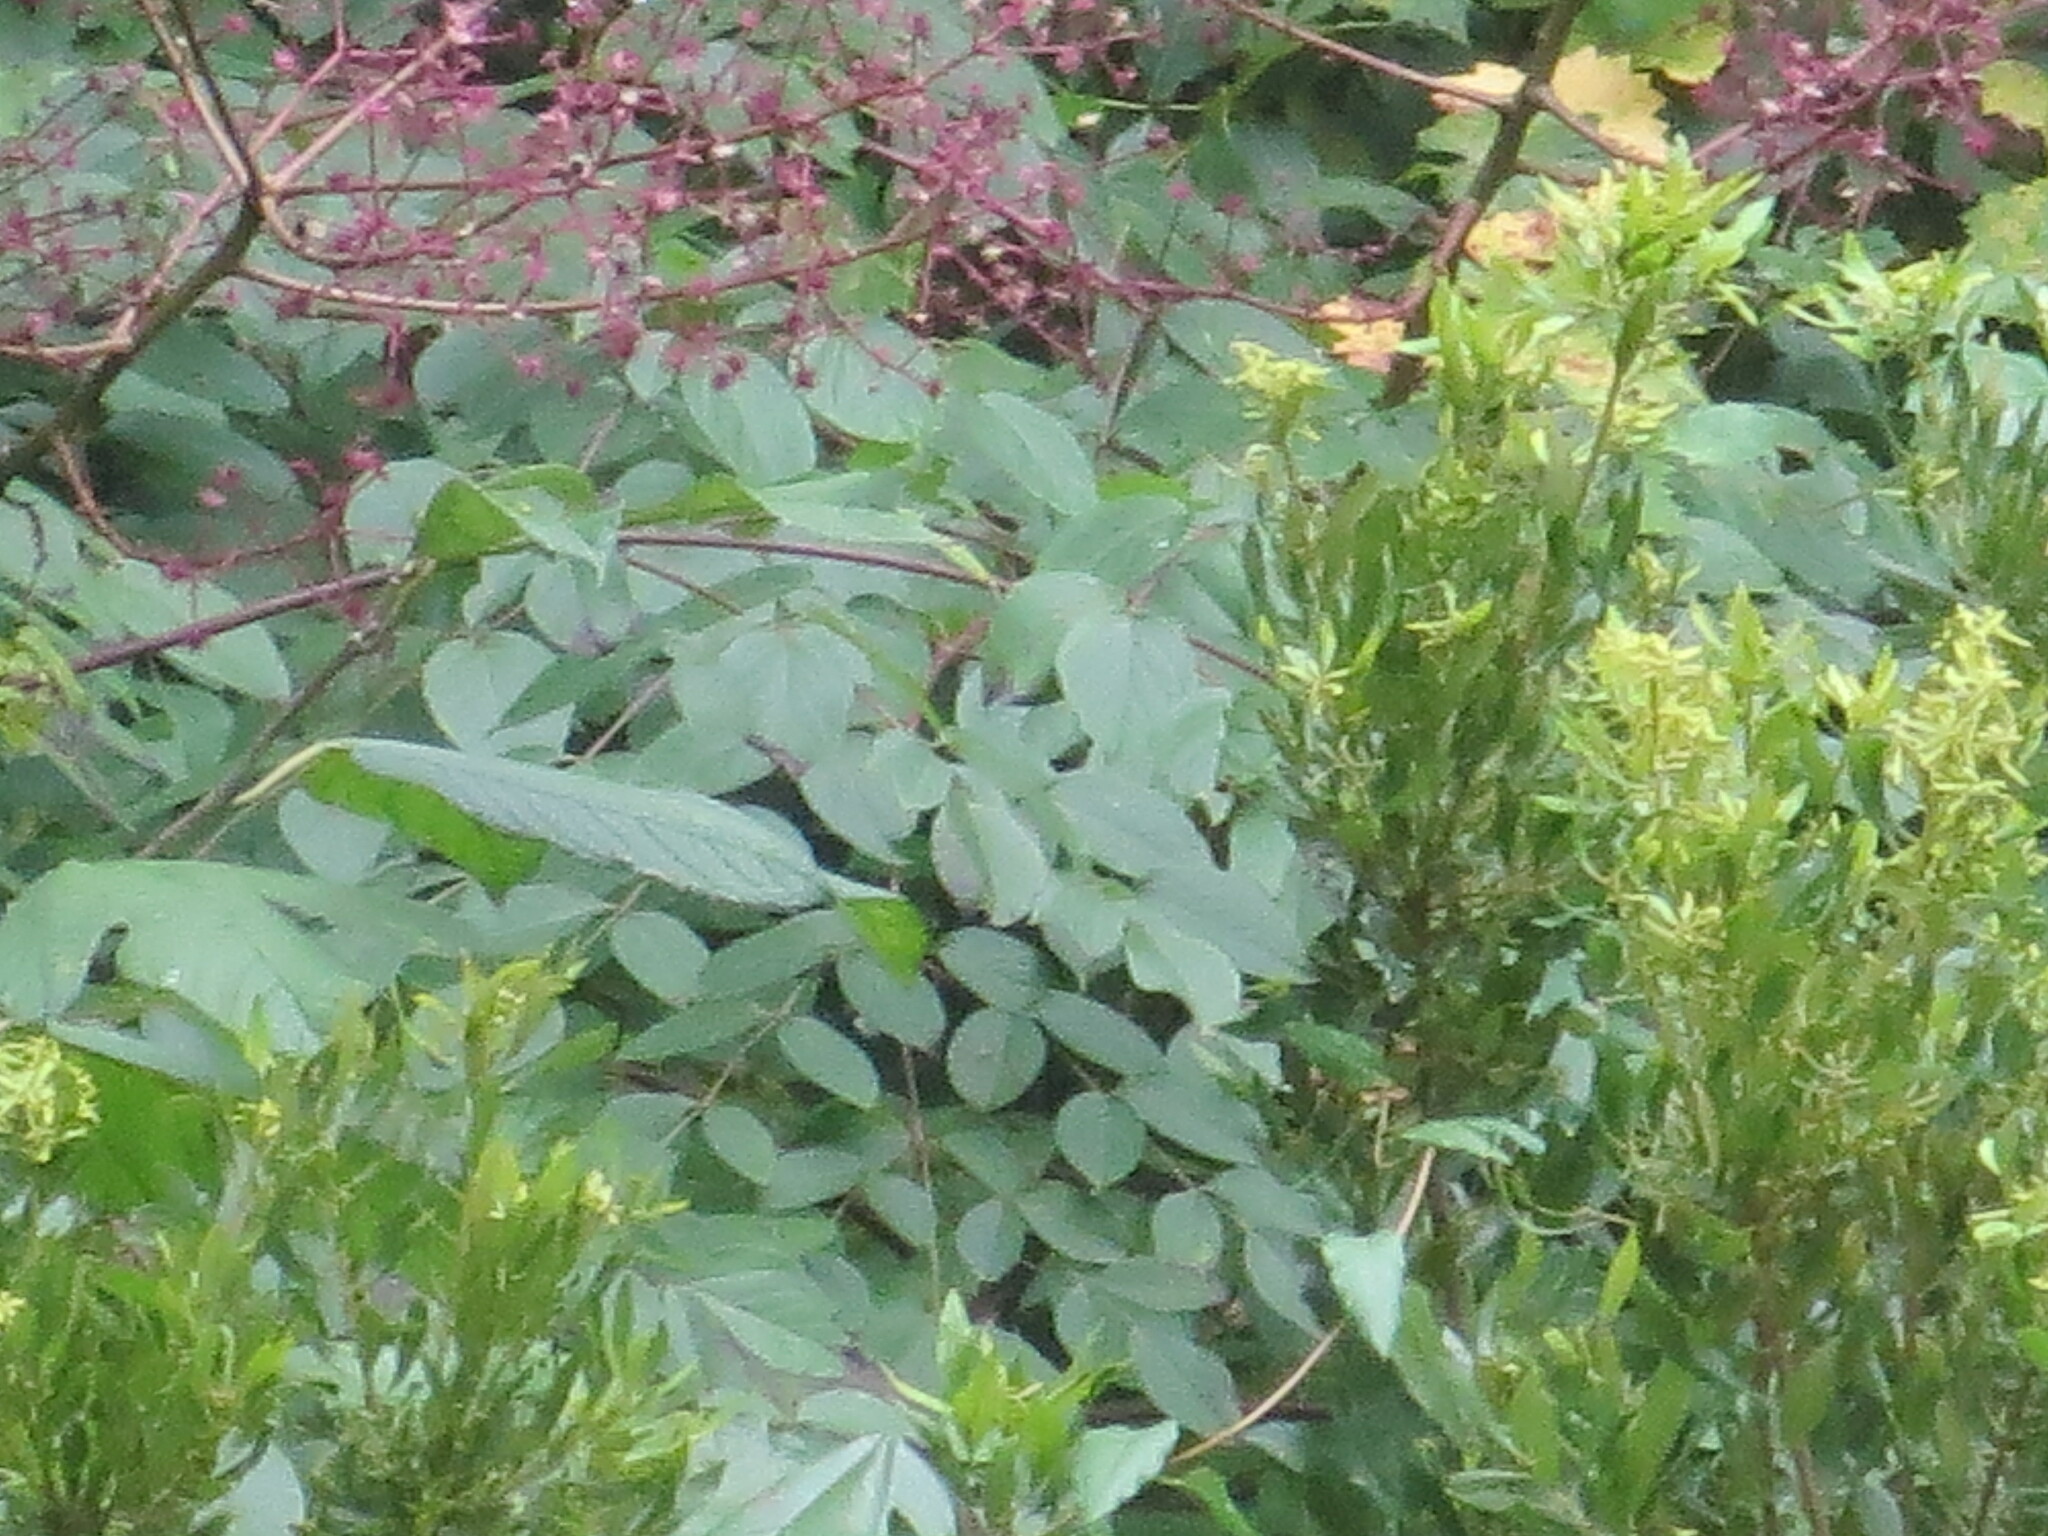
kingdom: Plantae
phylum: Tracheophyta
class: Magnoliopsida
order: Apiales
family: Araliaceae
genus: Aralia
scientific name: Aralia spinosa
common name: Hercules'-club
